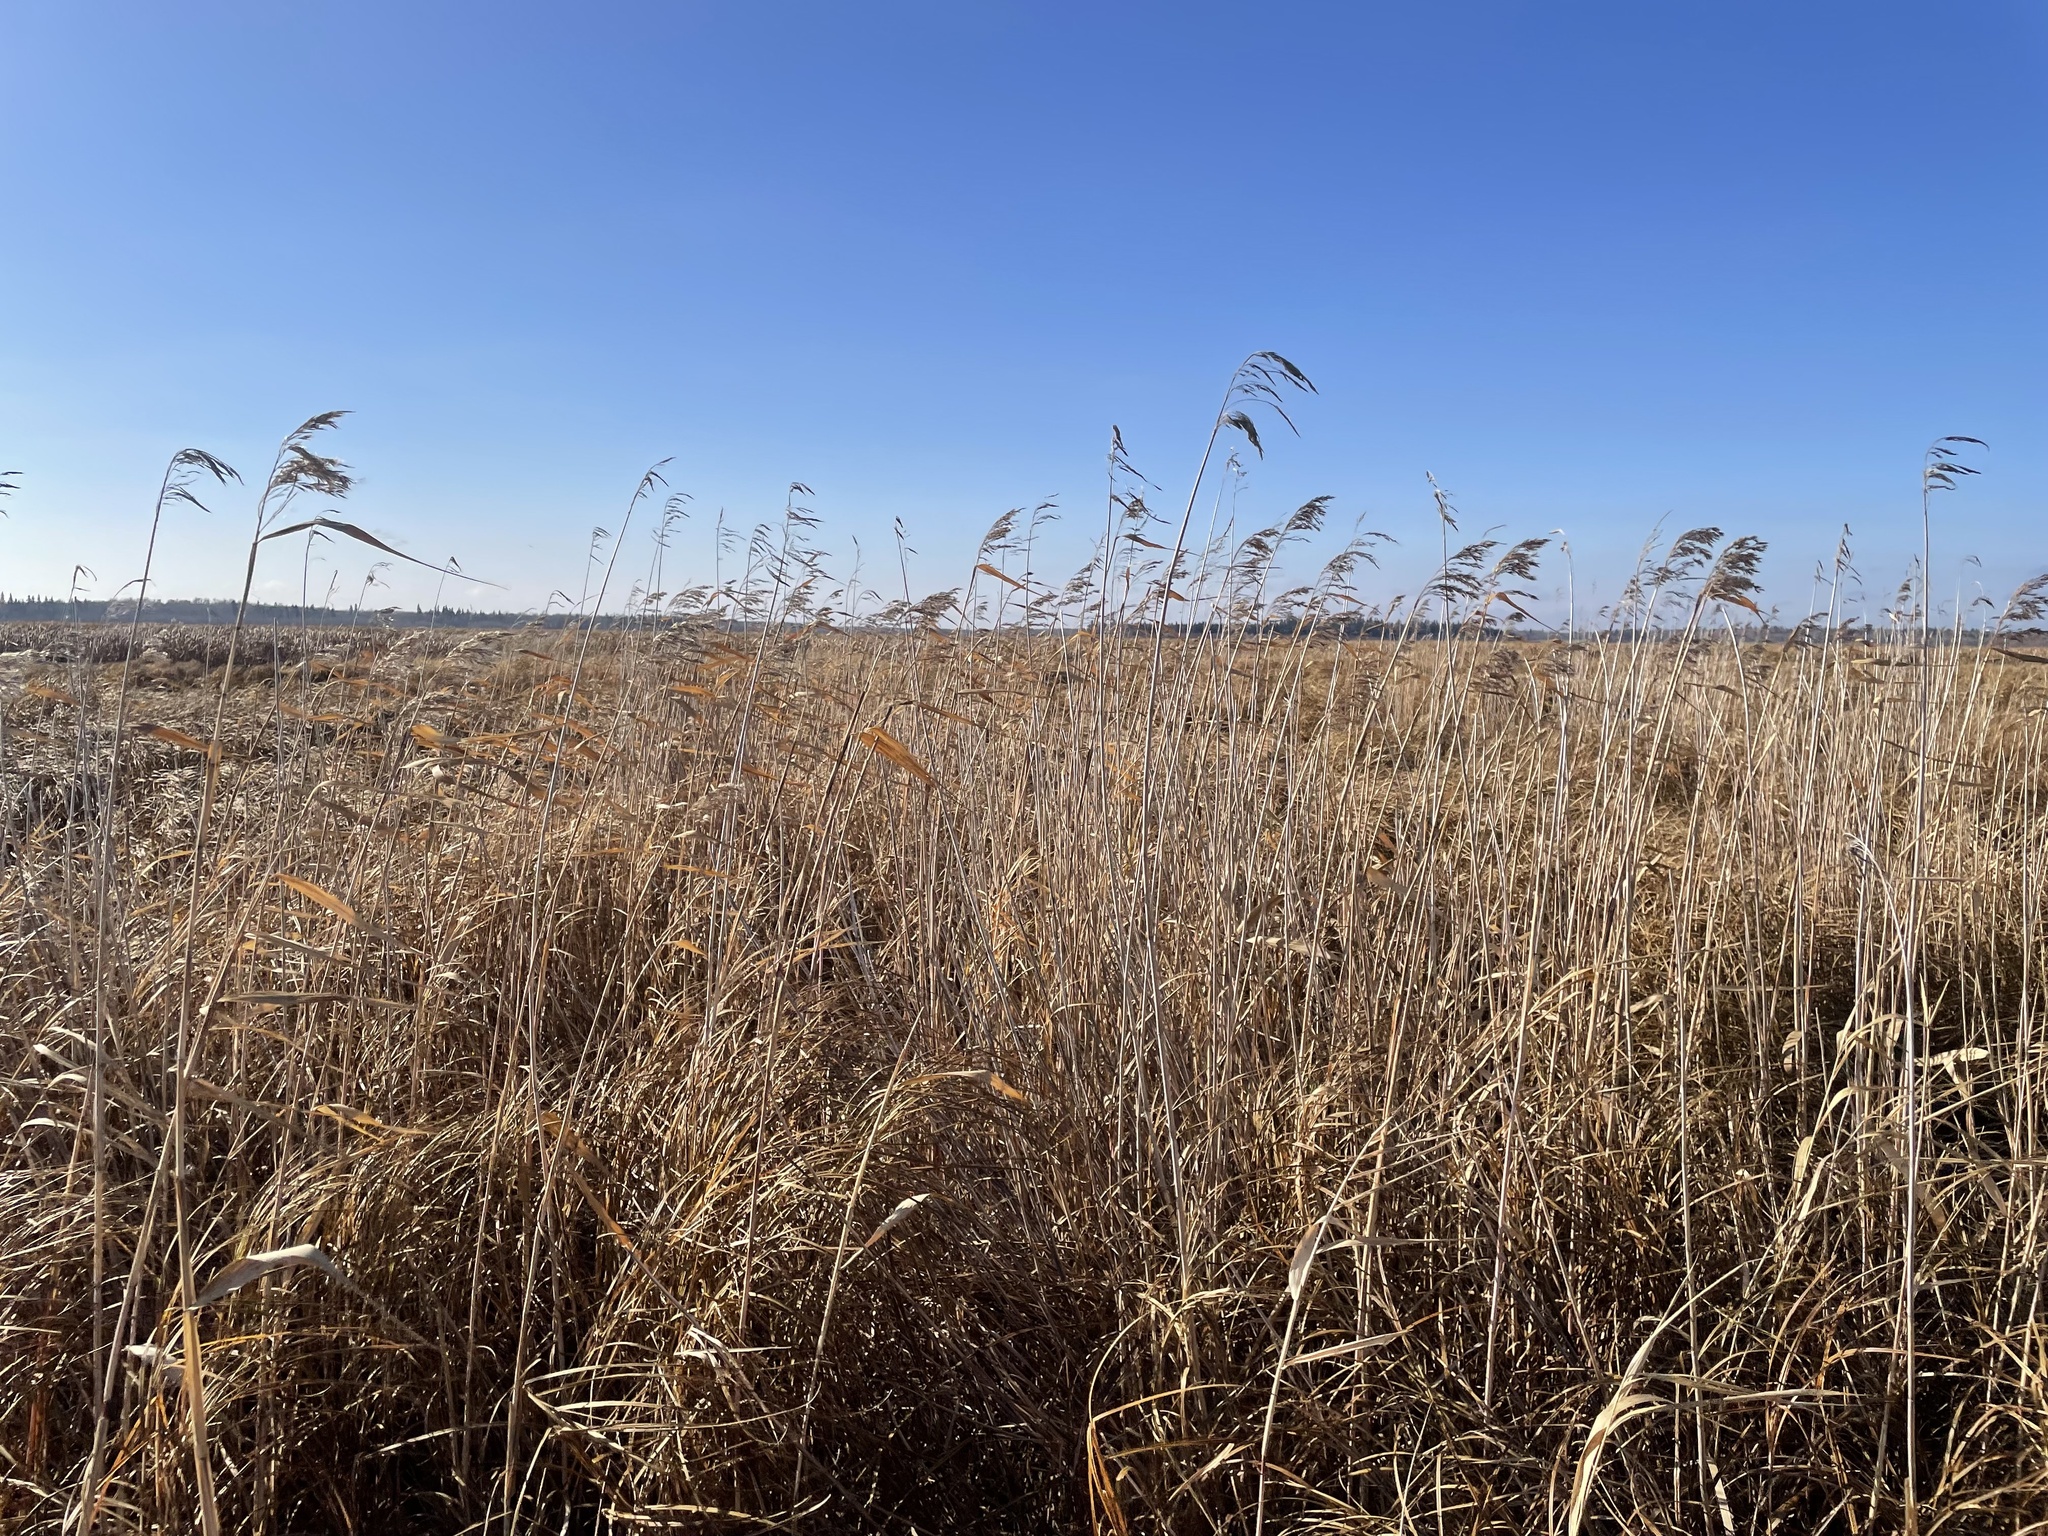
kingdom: Plantae
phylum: Tracheophyta
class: Liliopsida
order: Poales
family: Poaceae
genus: Phragmites
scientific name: Phragmites australis
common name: Common reed
